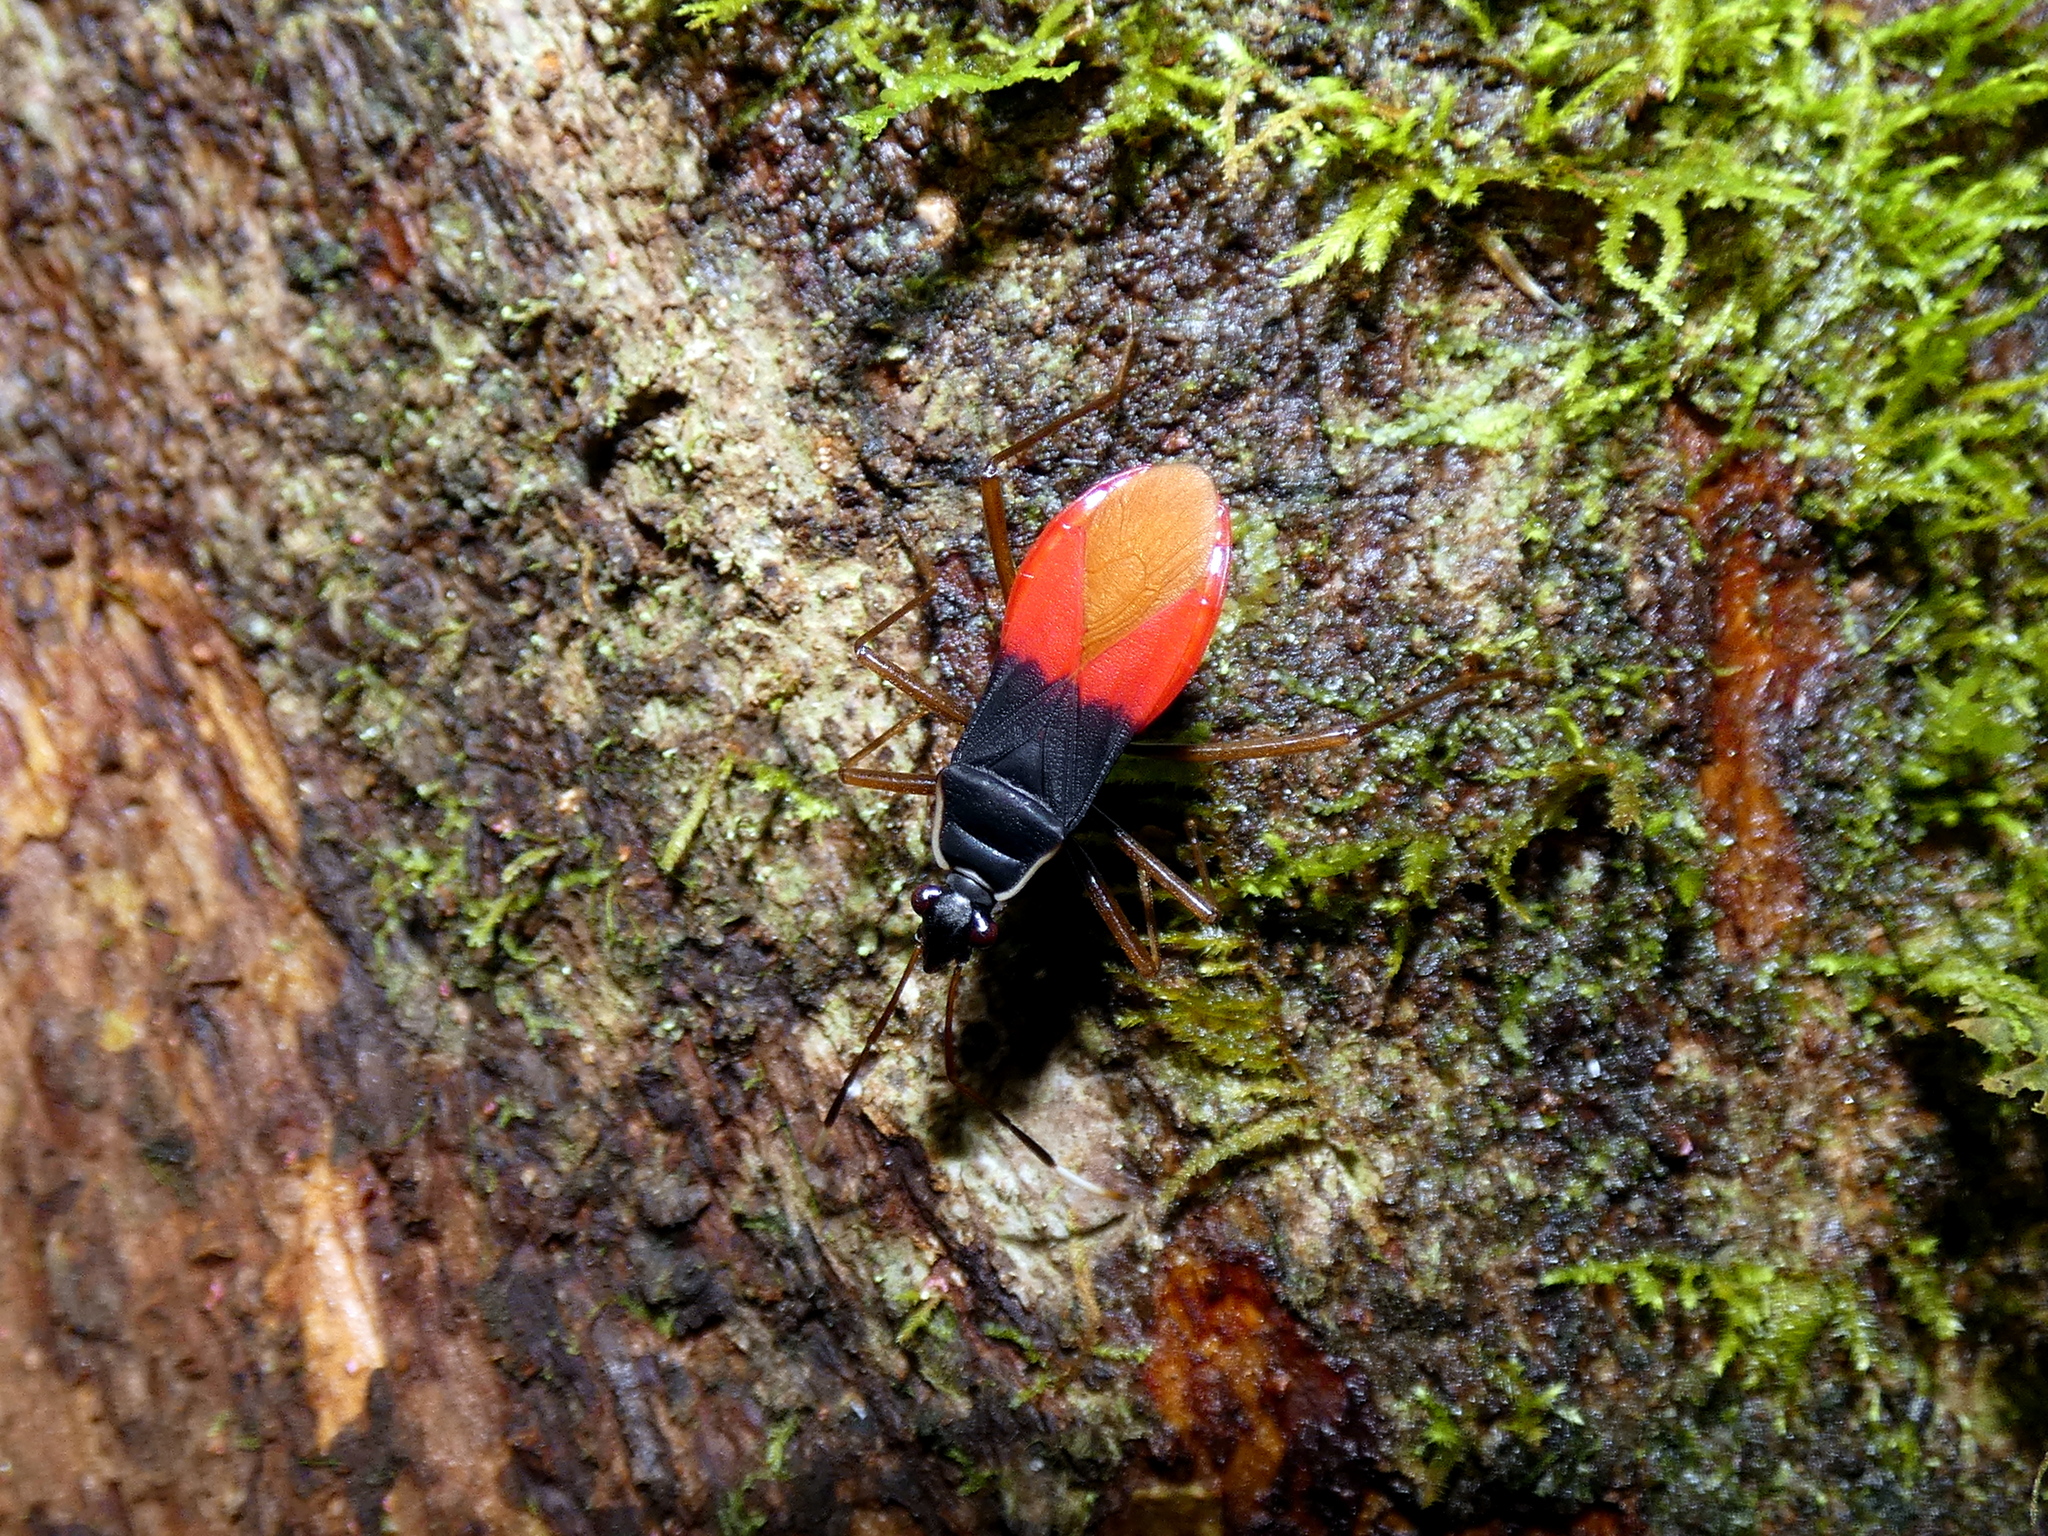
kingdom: Animalia
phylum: Arthropoda
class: Insecta
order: Hemiptera
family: Pyrrhocoridae
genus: Dindymus
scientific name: Dindymus
